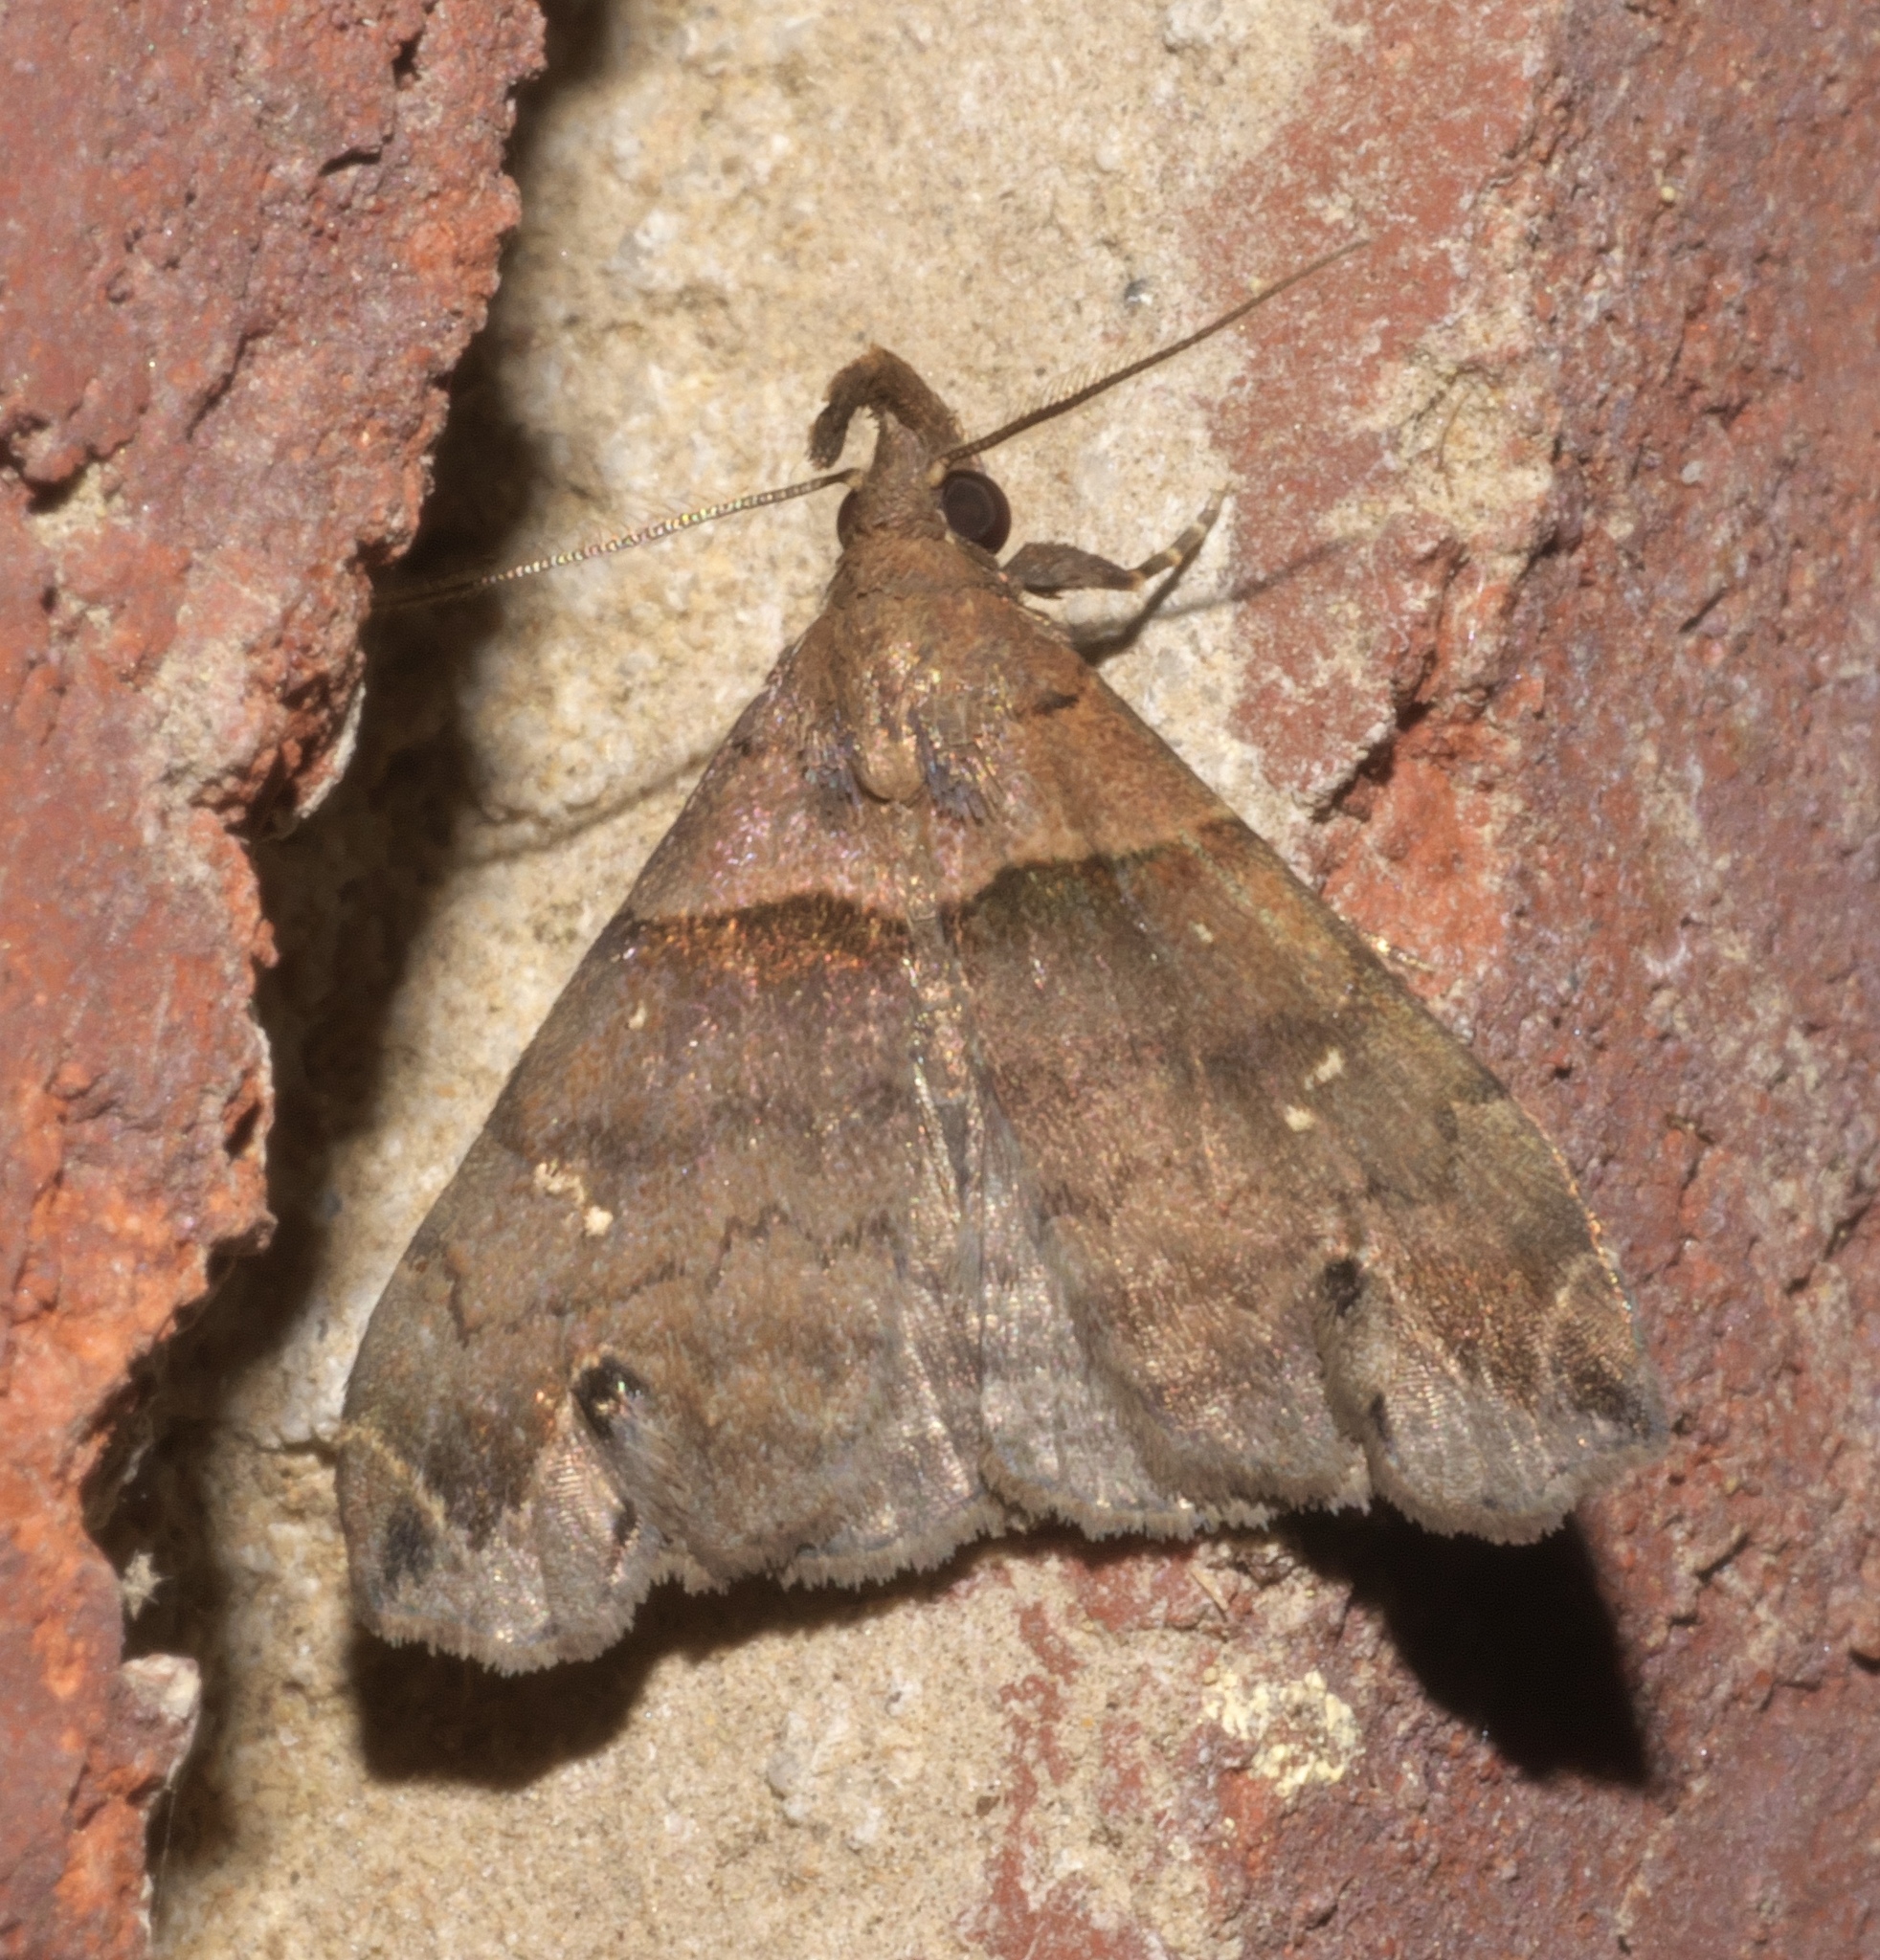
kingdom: Animalia
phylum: Arthropoda
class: Insecta
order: Lepidoptera
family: Erebidae
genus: Lascoria
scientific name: Lascoria ambigualis
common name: Ambiguous moth
